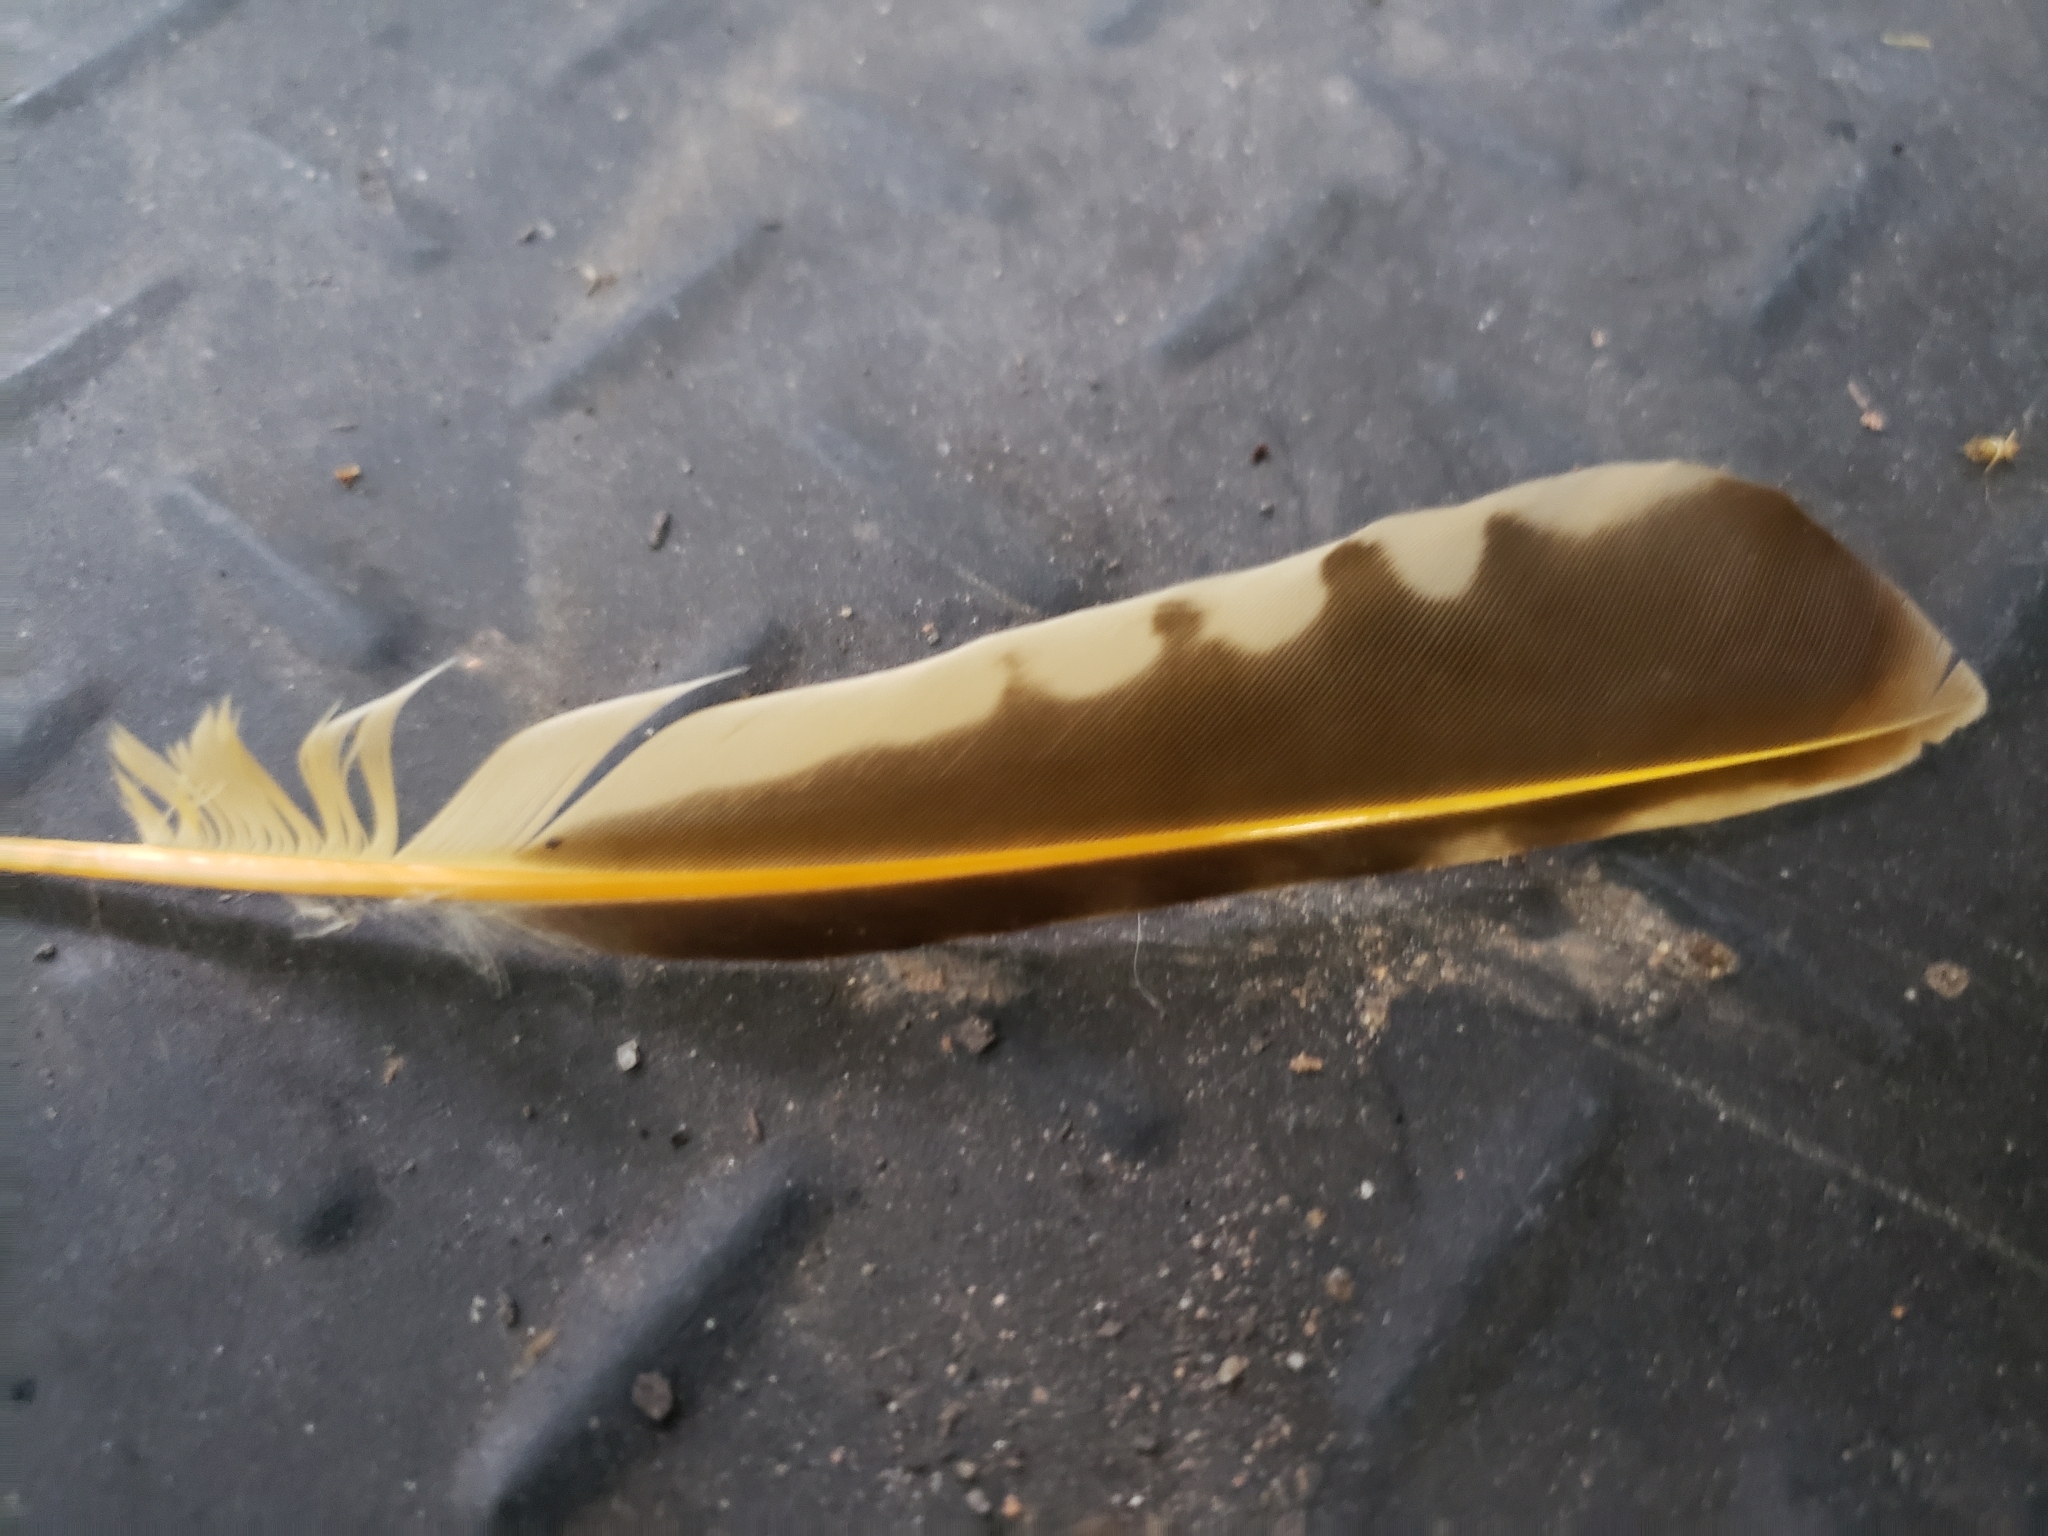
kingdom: Animalia
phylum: Chordata
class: Aves
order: Piciformes
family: Picidae
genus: Colaptes
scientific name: Colaptes auratus
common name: Northern flicker
